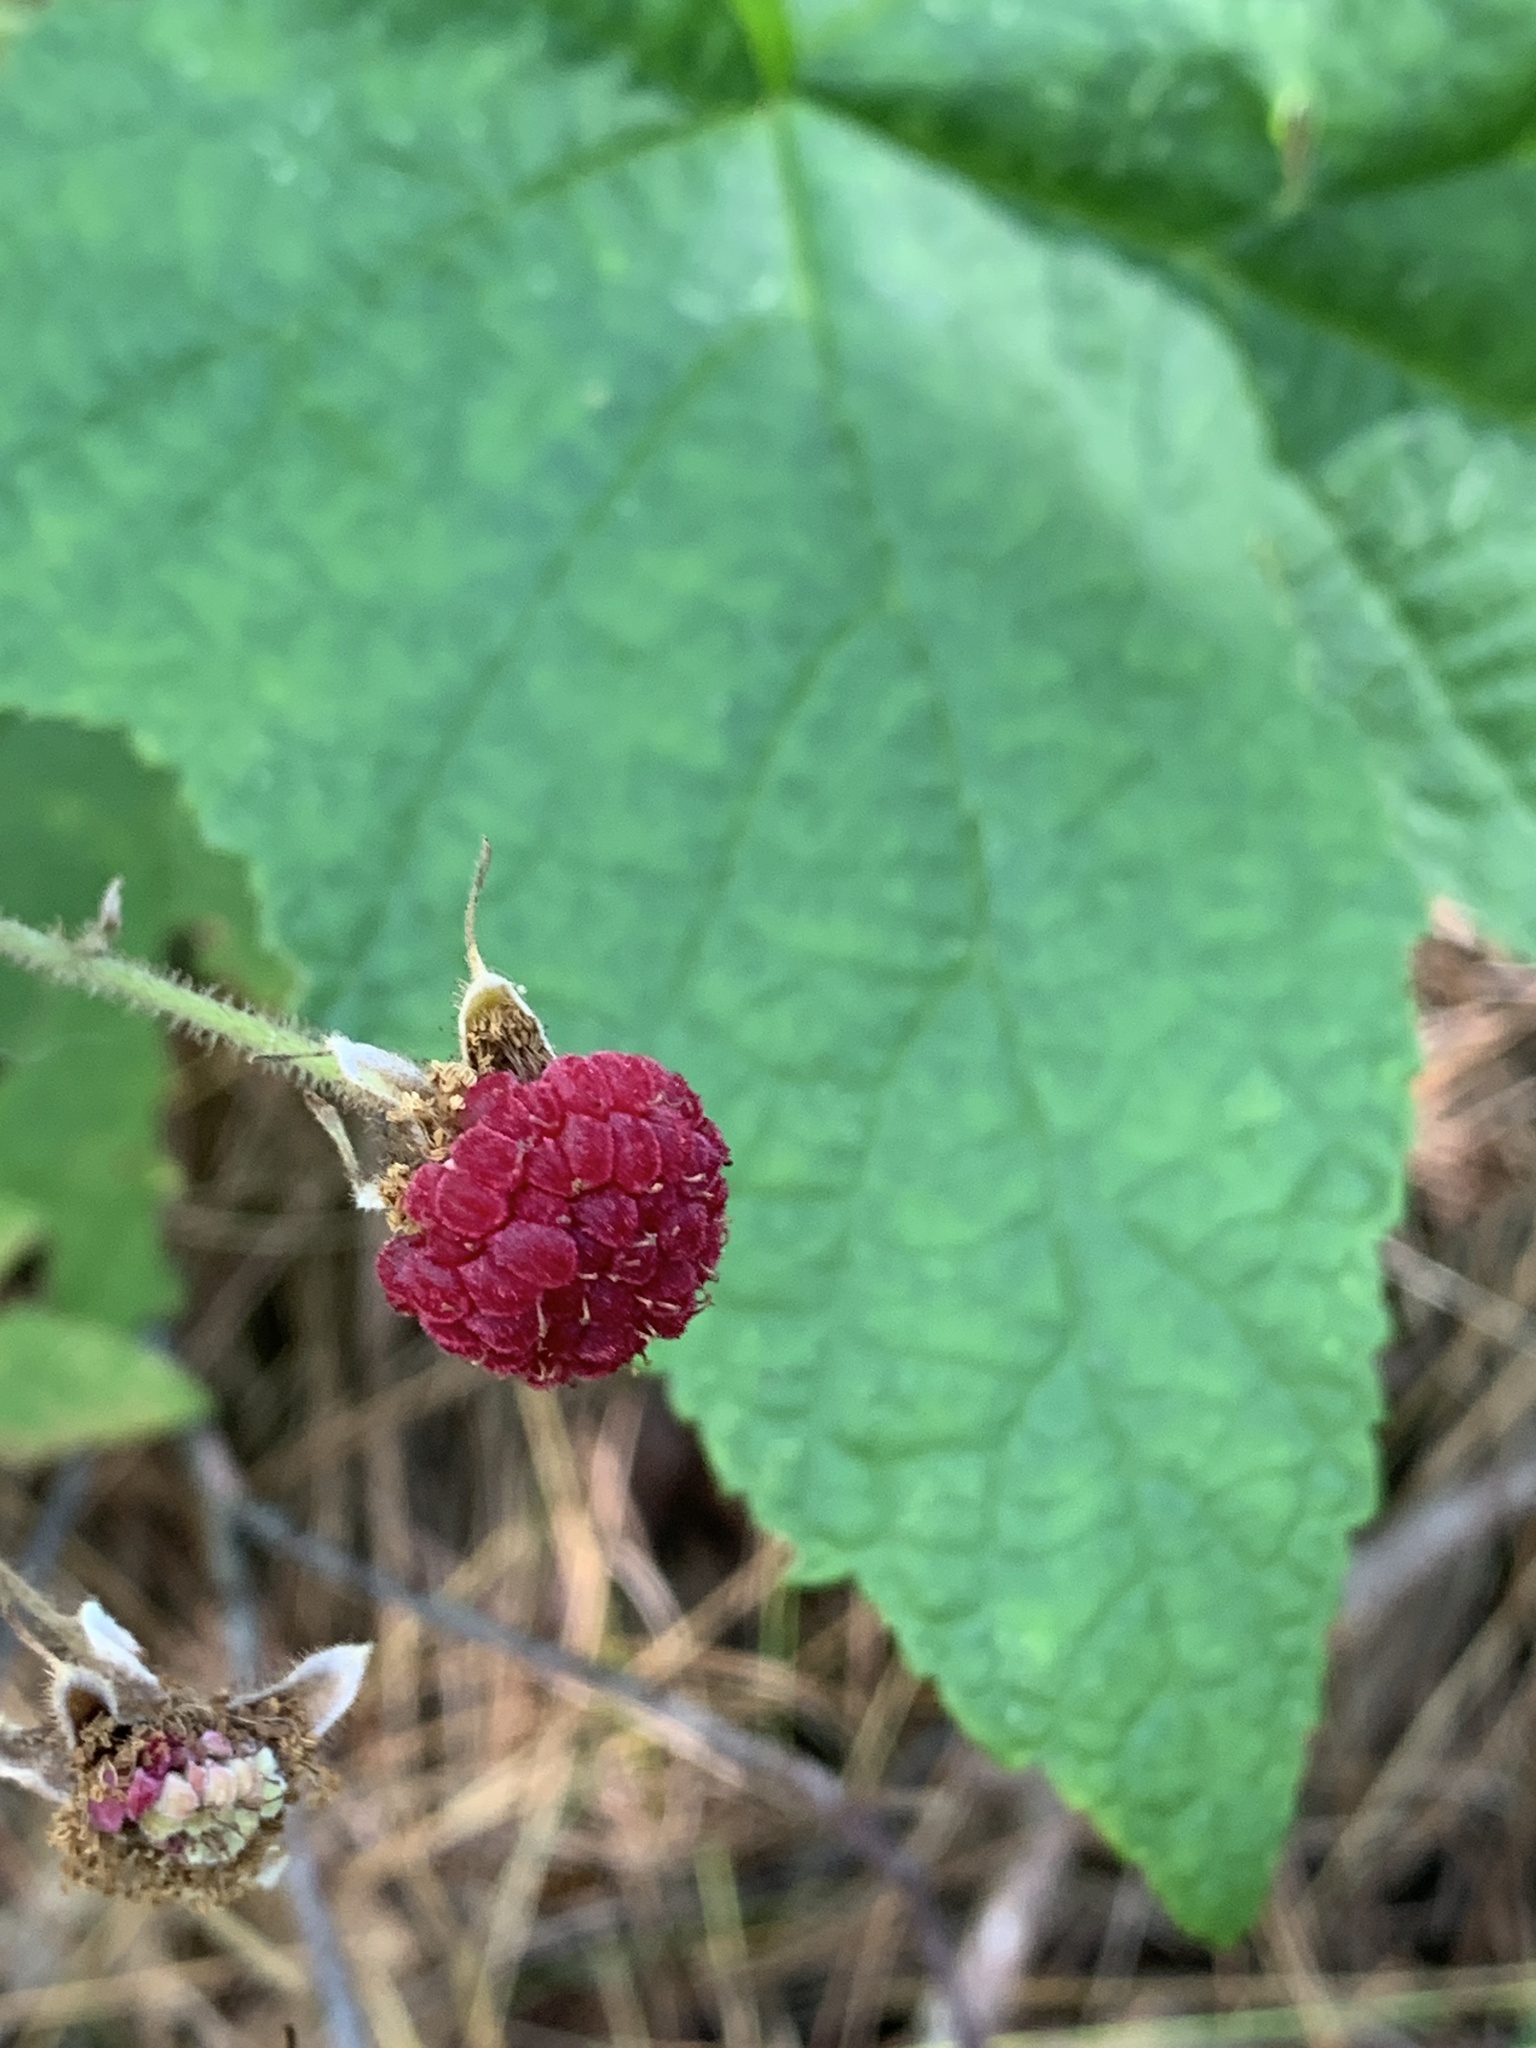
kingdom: Plantae
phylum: Tracheophyta
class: Magnoliopsida
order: Rosales
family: Rosaceae
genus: Rubus
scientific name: Rubus odoratus
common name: Purple-flowered raspberry
